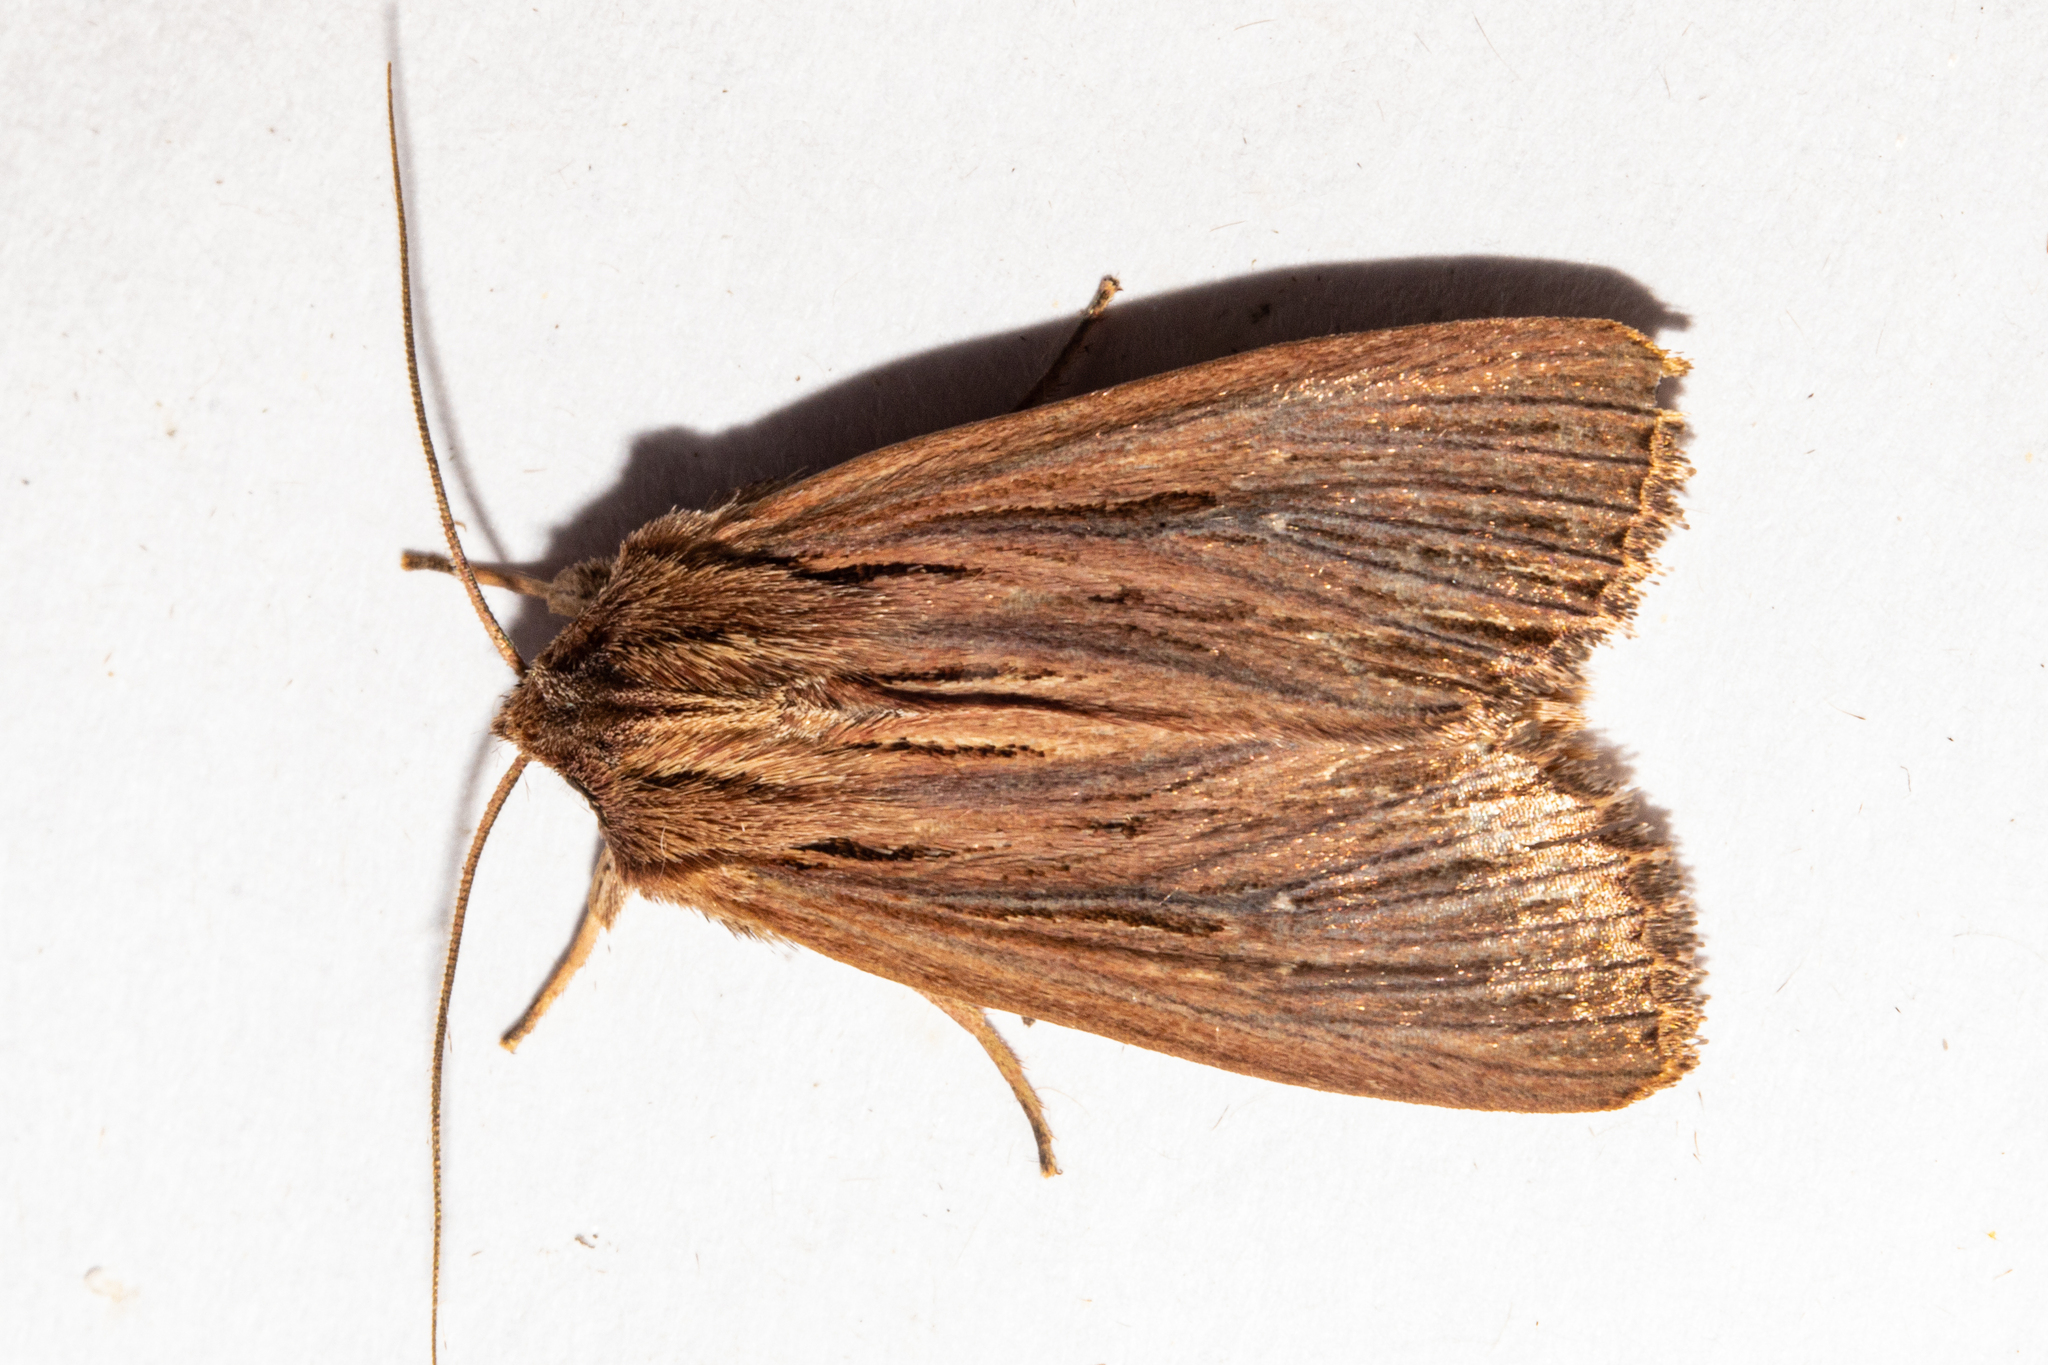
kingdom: Animalia
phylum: Arthropoda
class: Insecta
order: Lepidoptera
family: Noctuidae
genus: Ichneutica
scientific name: Ichneutica
